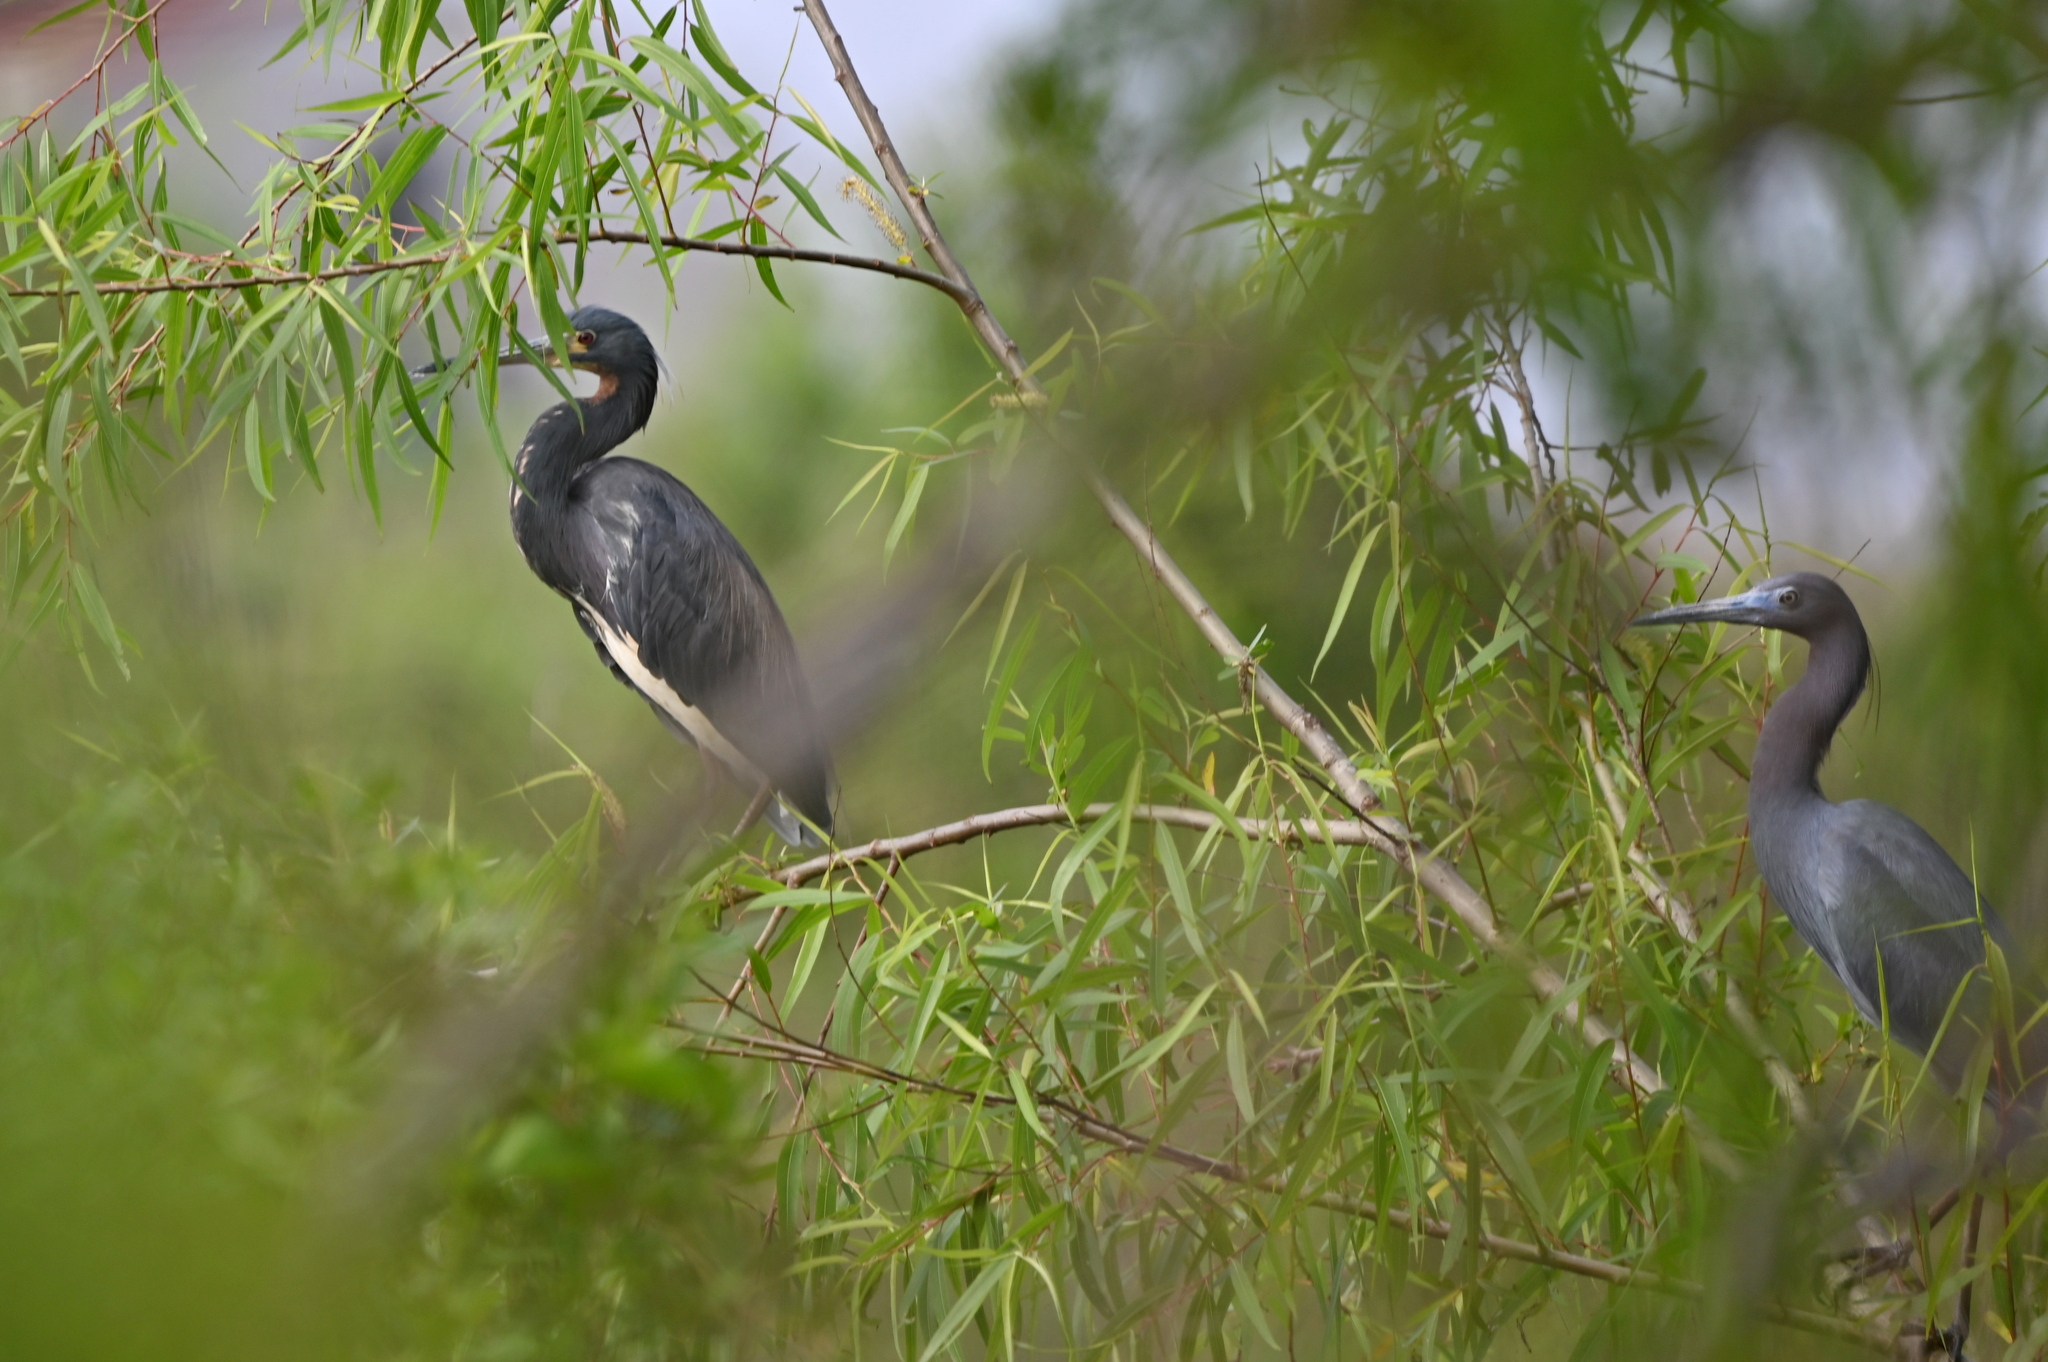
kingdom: Animalia
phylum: Chordata
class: Aves
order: Pelecaniformes
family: Ardeidae
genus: Egretta
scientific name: Egretta tricolor
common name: Tricolored heron
